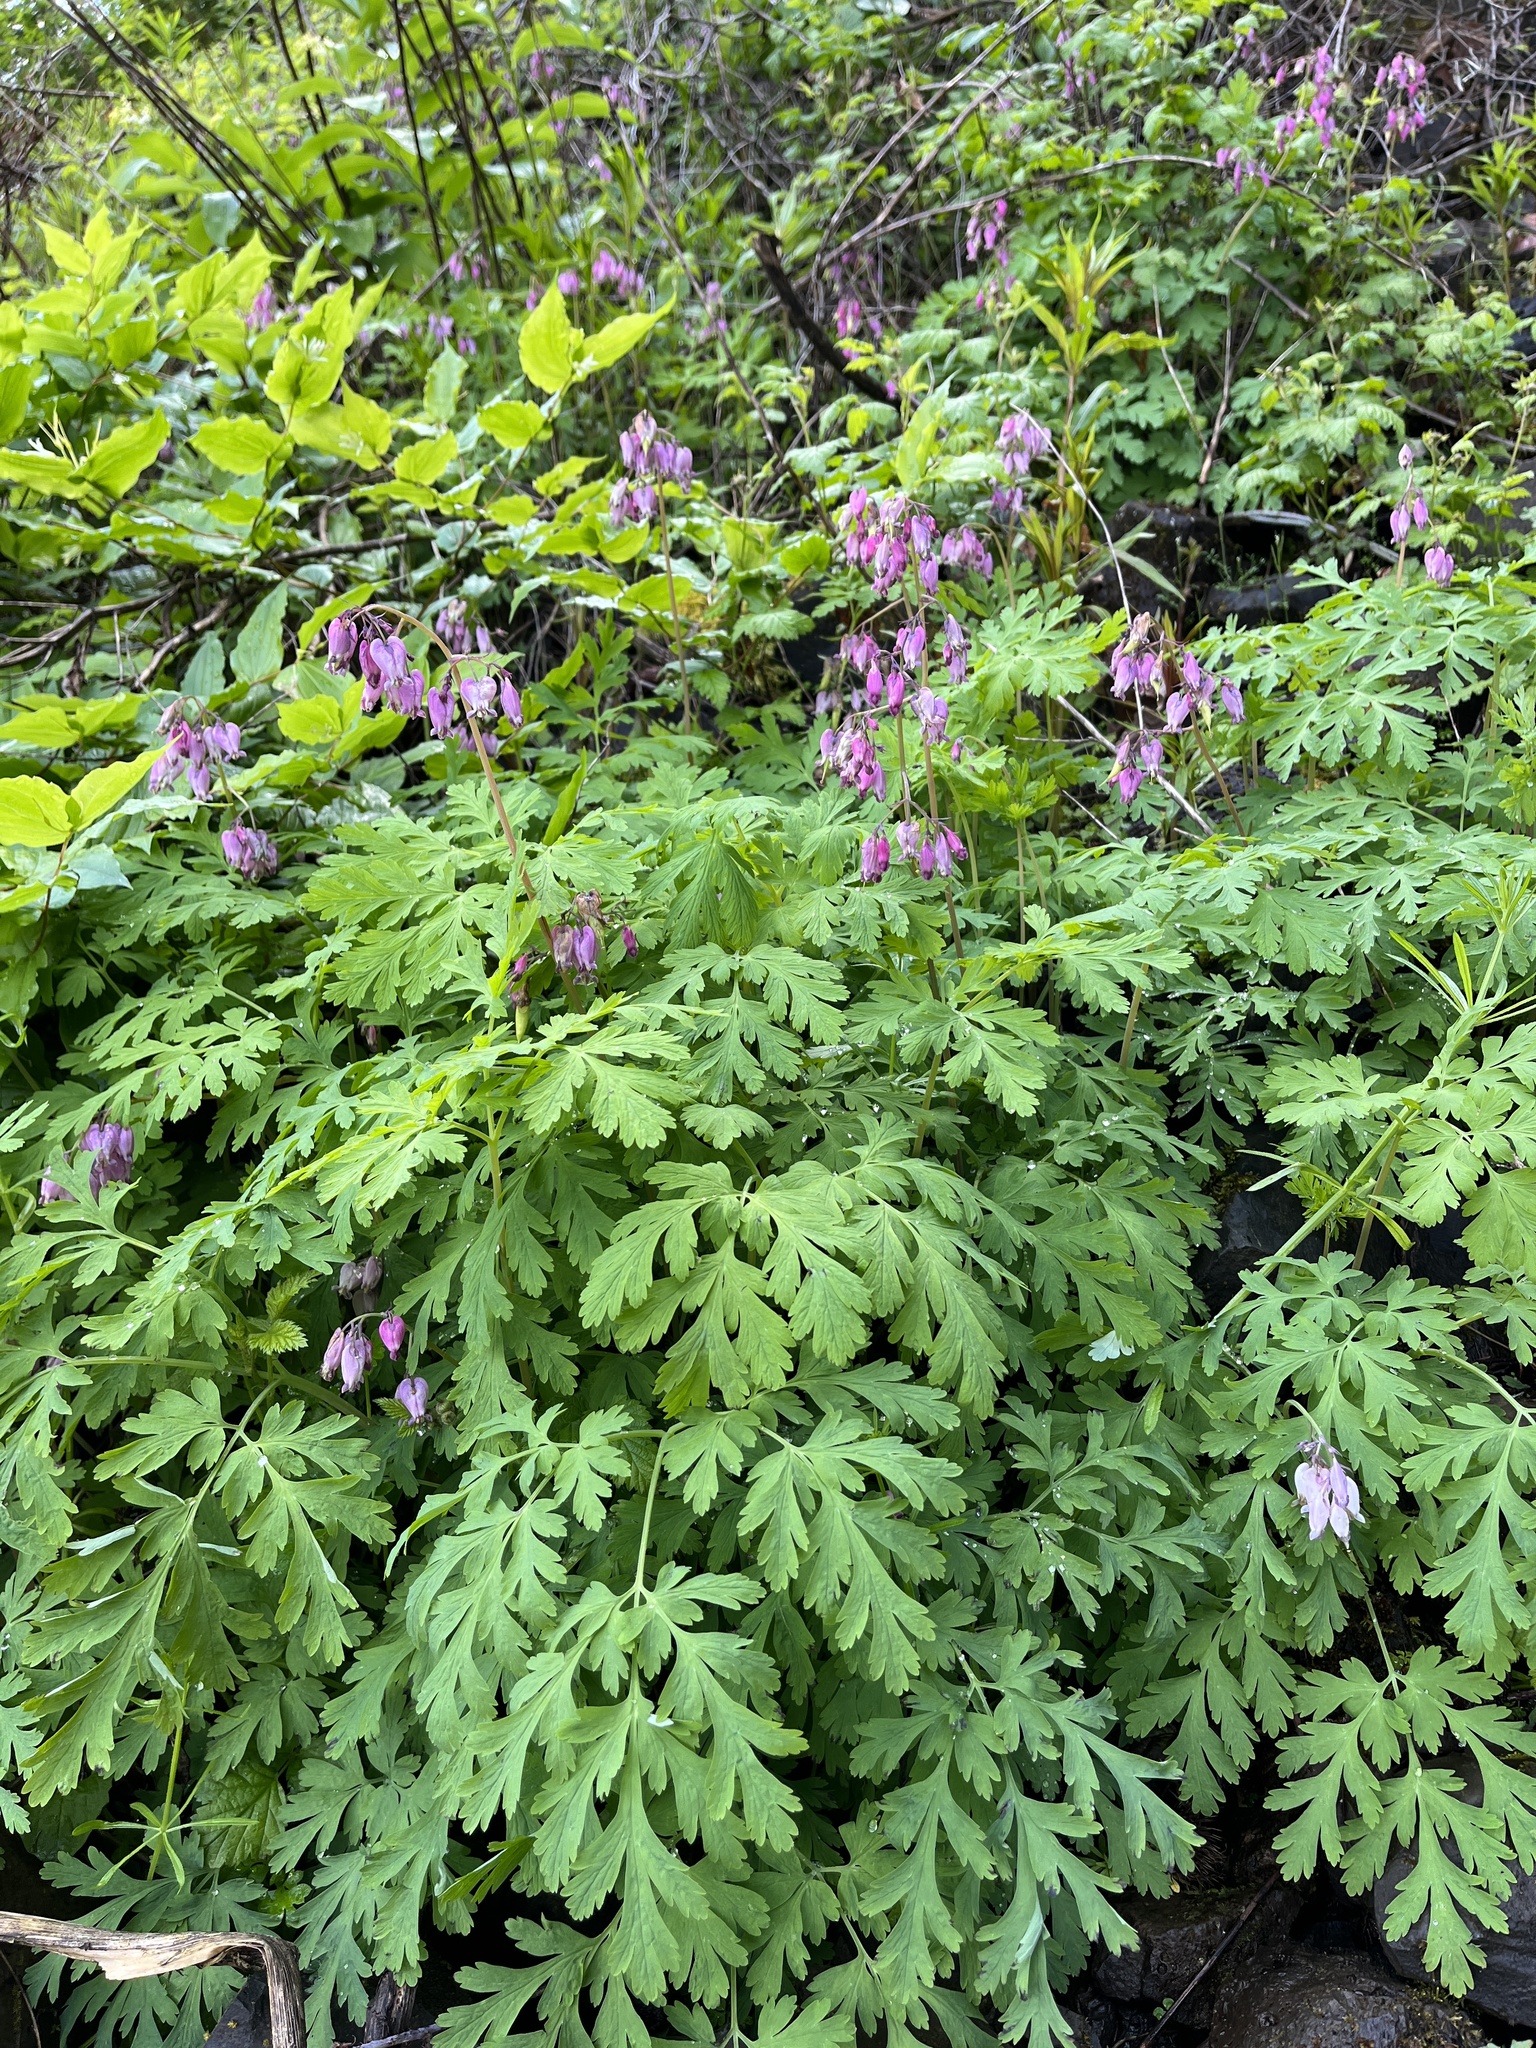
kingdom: Plantae
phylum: Tracheophyta
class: Magnoliopsida
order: Ranunculales
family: Papaveraceae
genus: Dicentra
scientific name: Dicentra formosa
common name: Bleeding-heart
